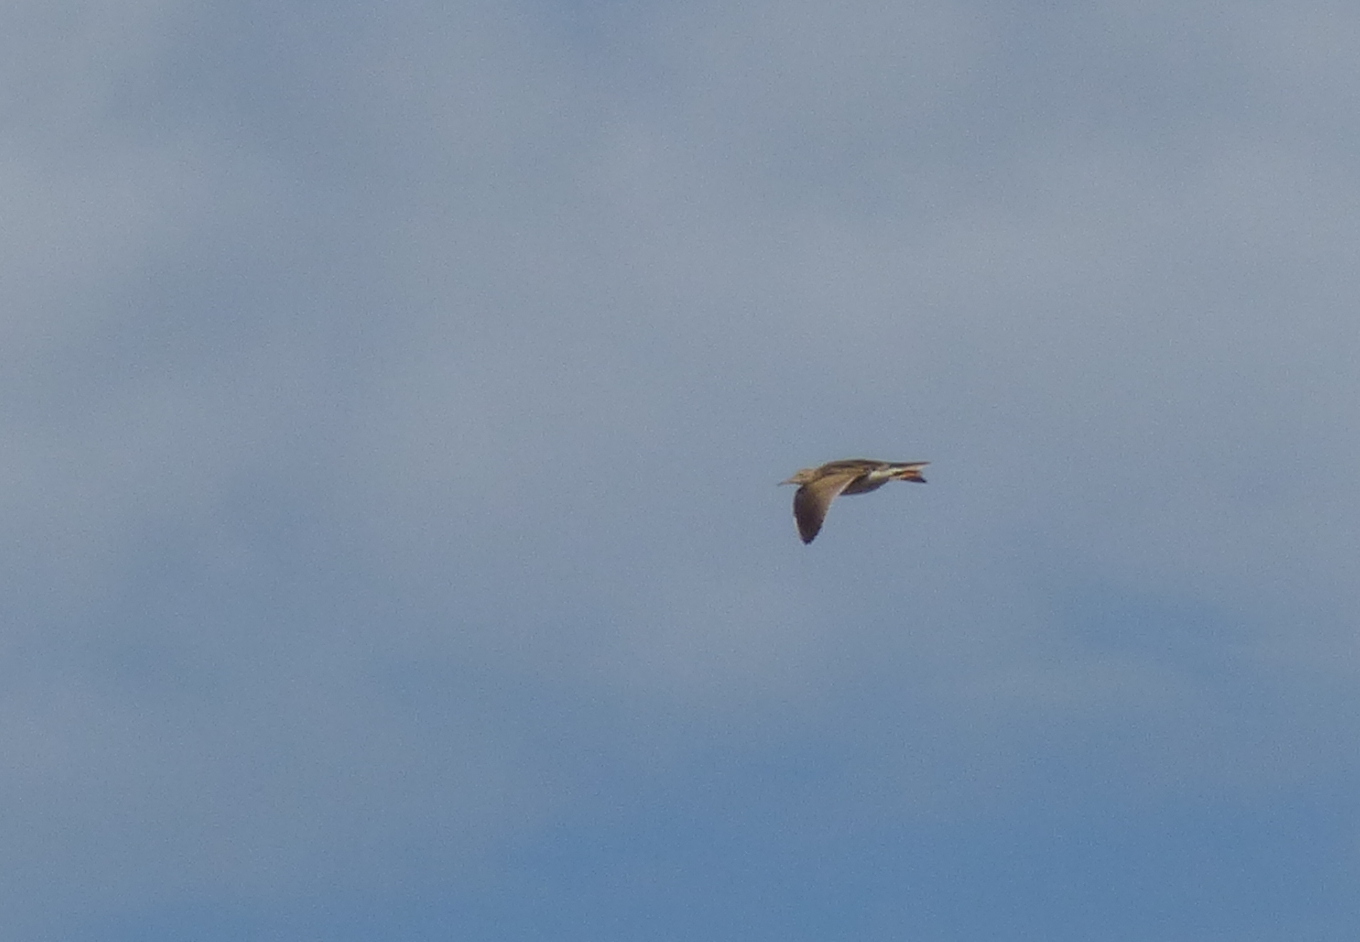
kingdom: Animalia
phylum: Chordata
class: Aves
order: Charadriiformes
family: Scolopacidae
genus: Bartramia
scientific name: Bartramia longicauda
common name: Upland sandpiper
